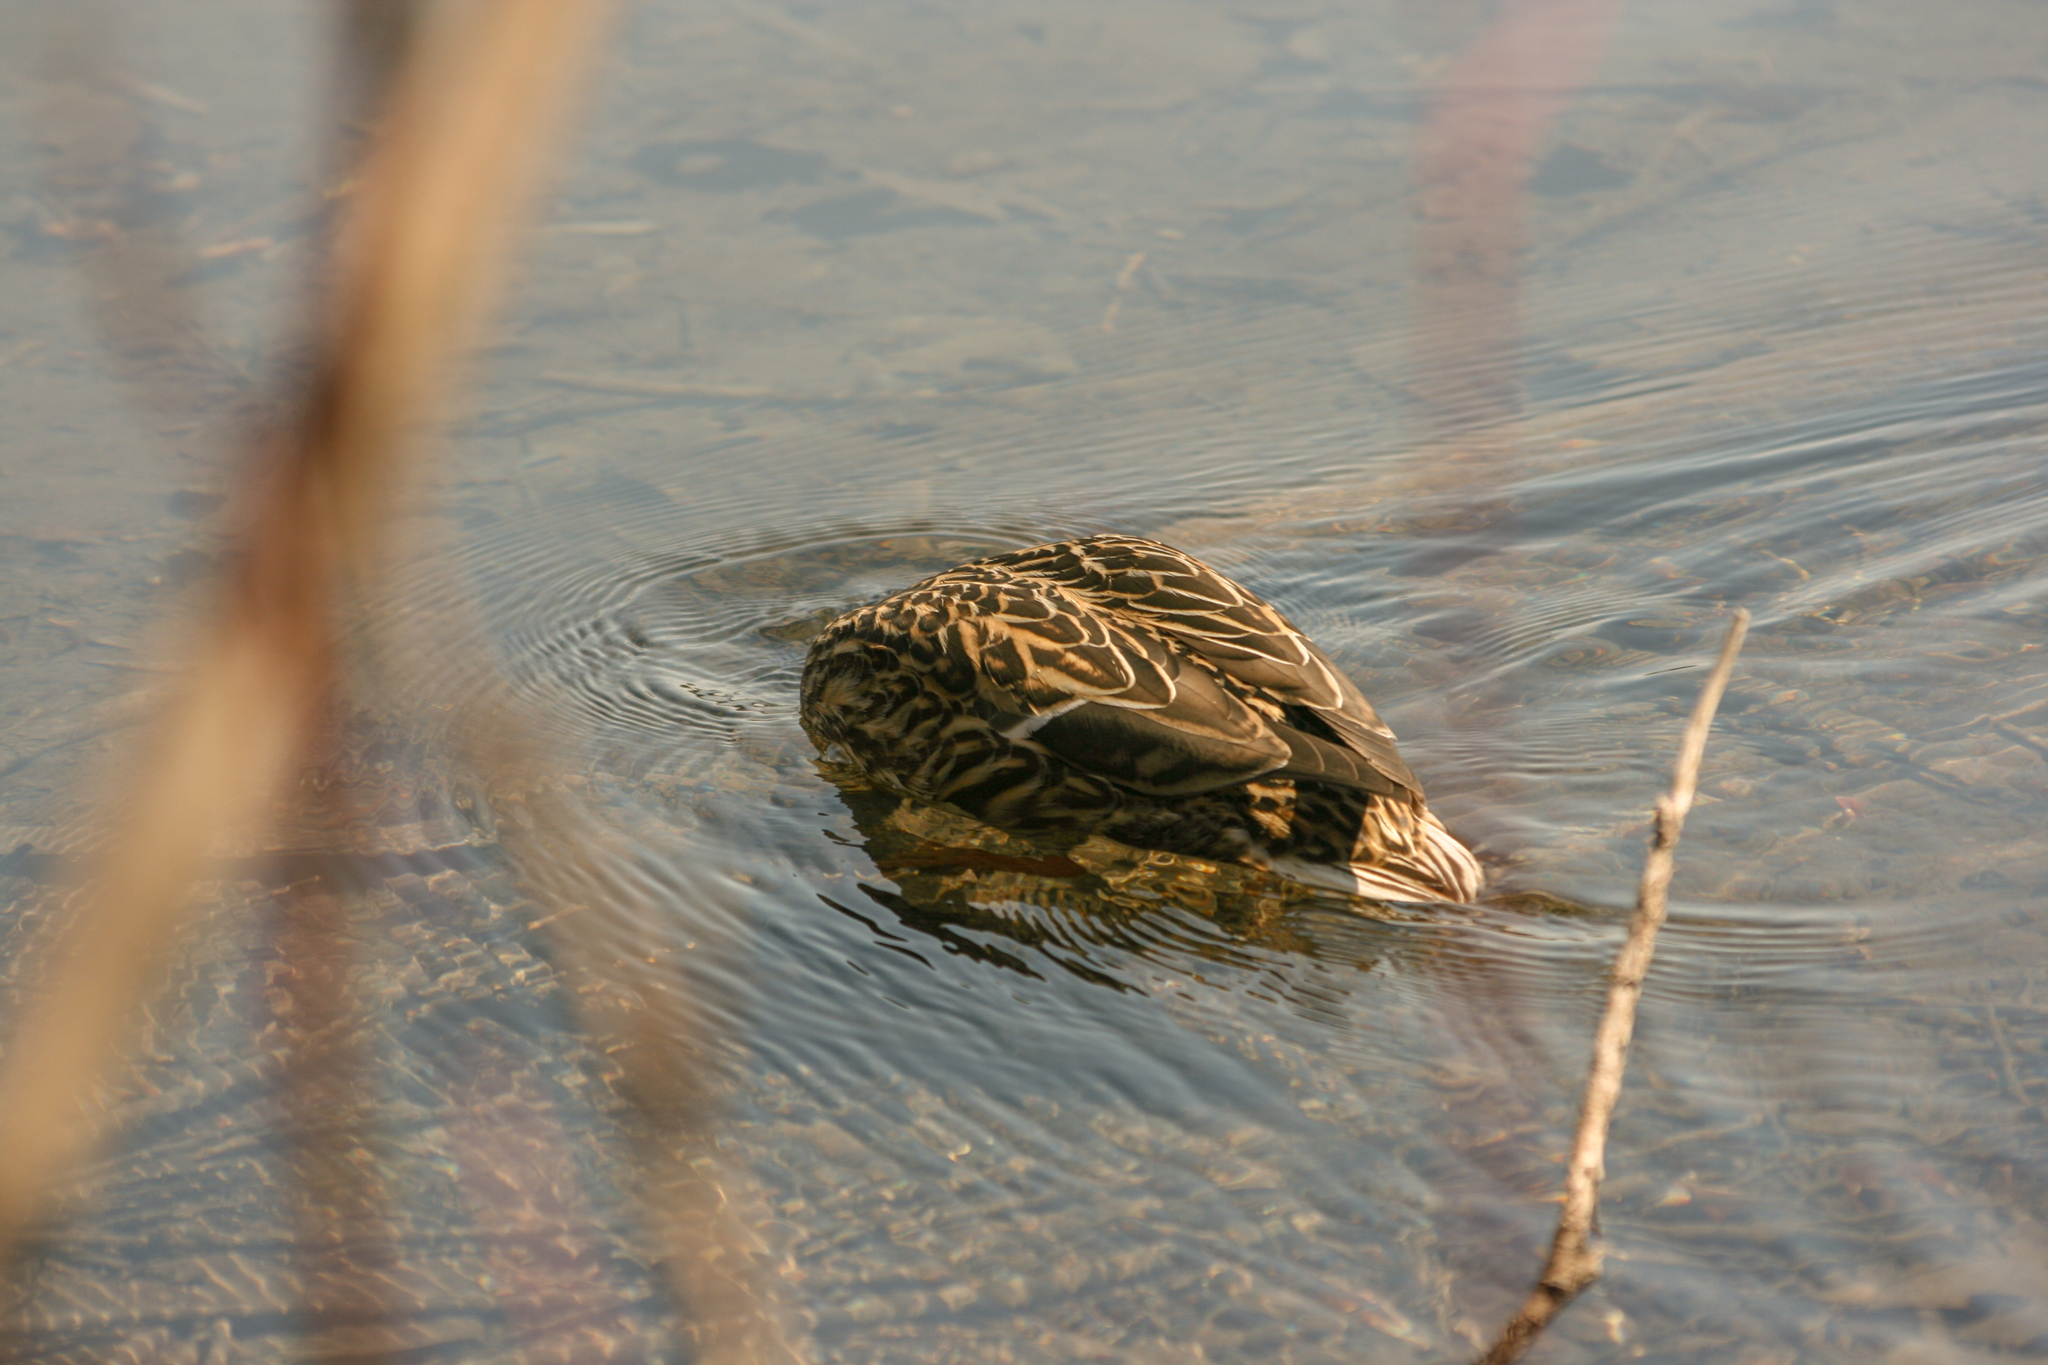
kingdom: Animalia
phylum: Chordata
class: Aves
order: Anseriformes
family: Anatidae
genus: Anas
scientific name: Anas platyrhynchos
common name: Mallard
